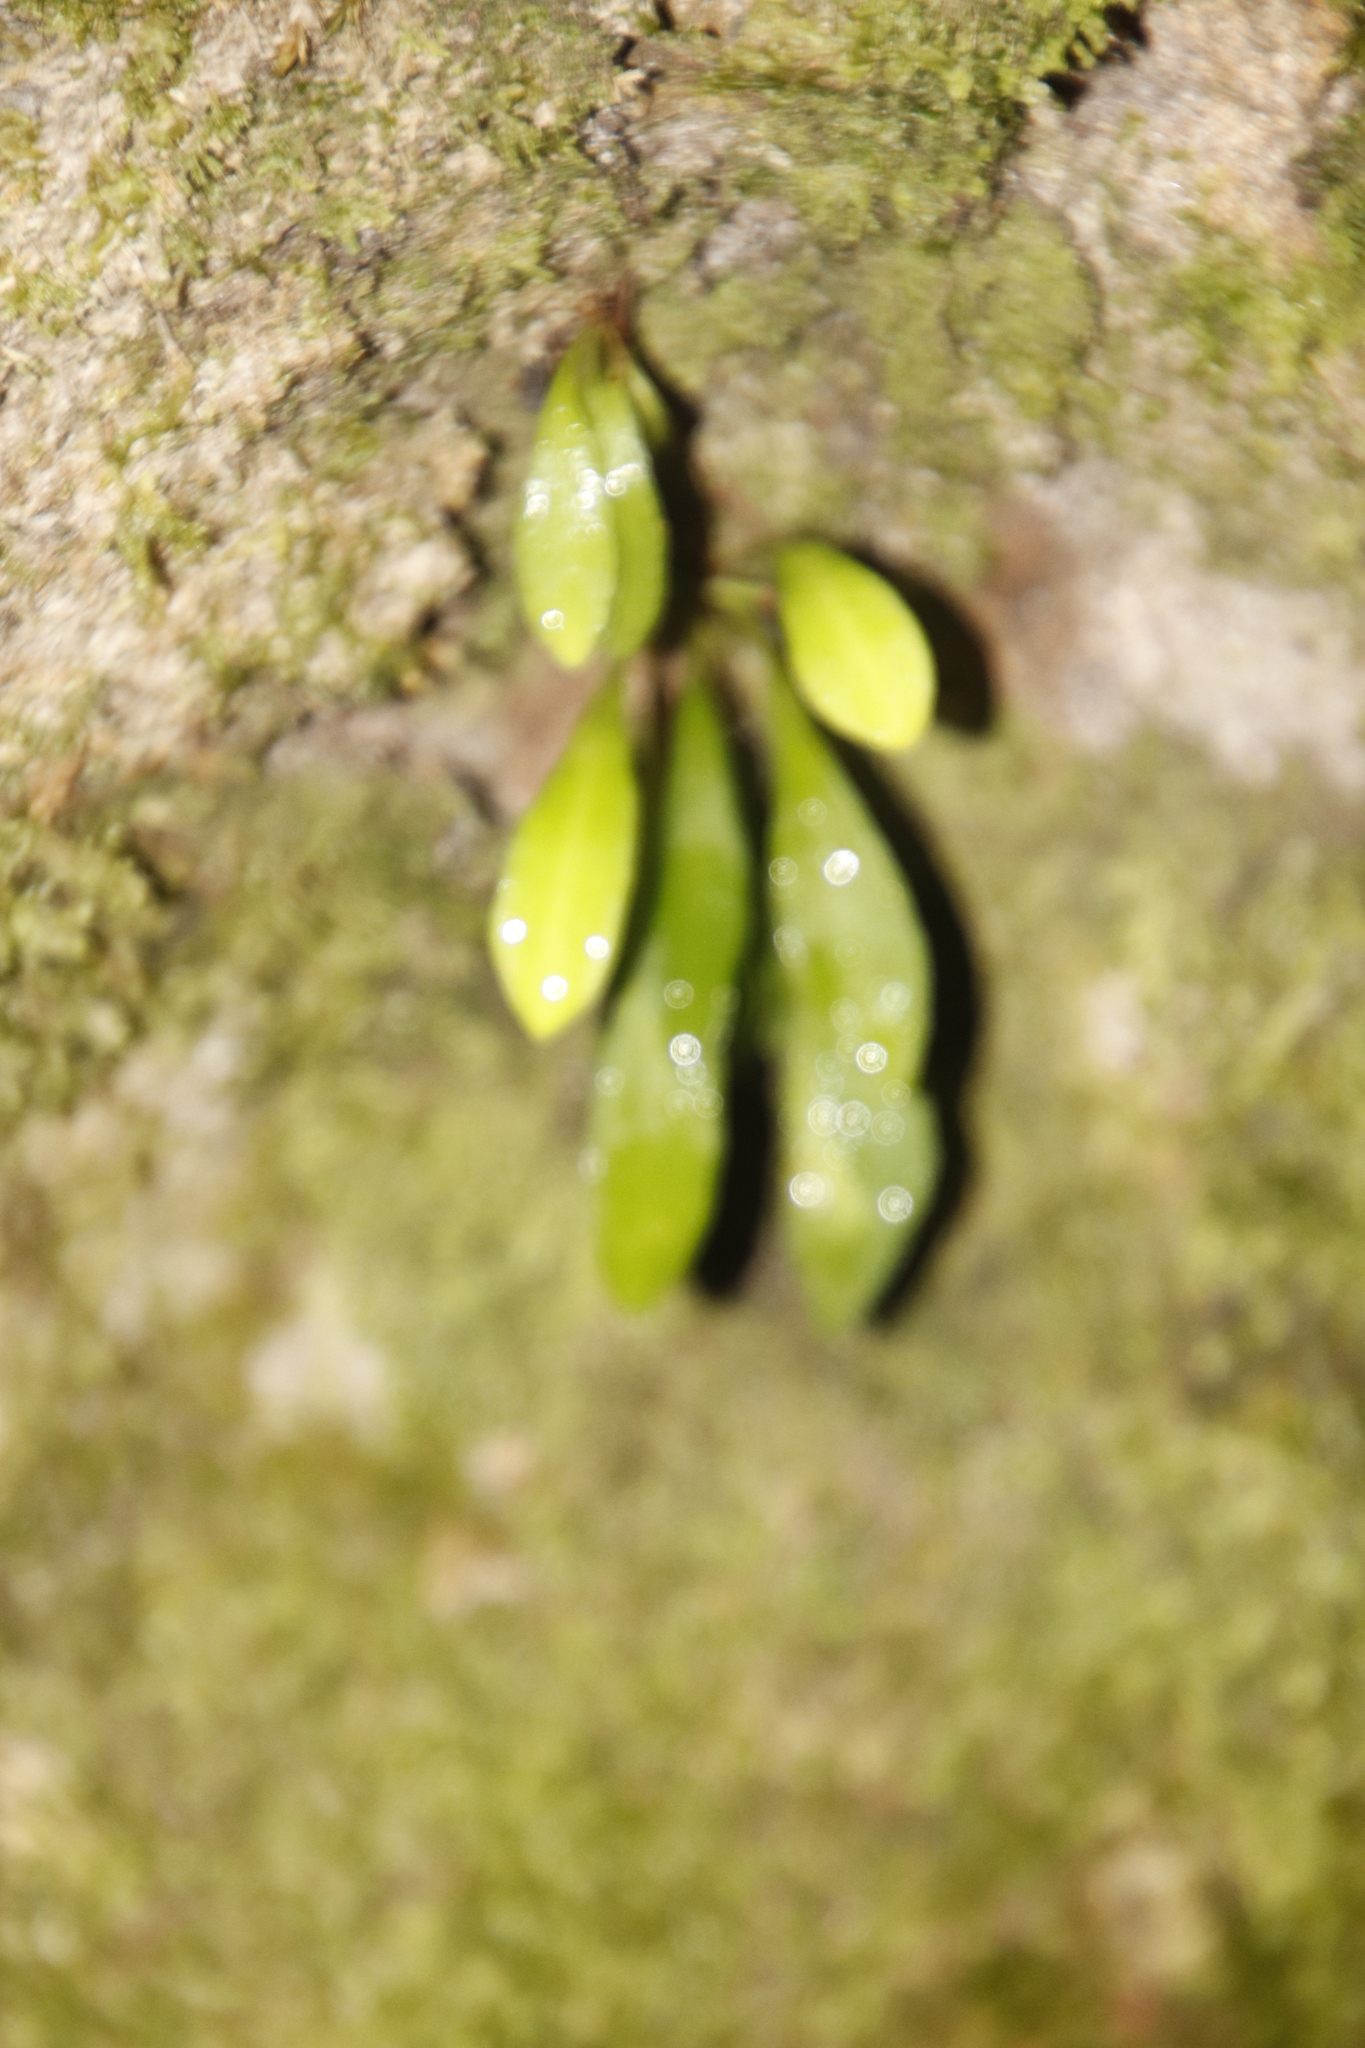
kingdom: Plantae
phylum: Tracheophyta
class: Polypodiopsida
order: Polypodiales
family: Polypodiaceae
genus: Pleopeltis
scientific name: Pleopeltis macrocarpa
